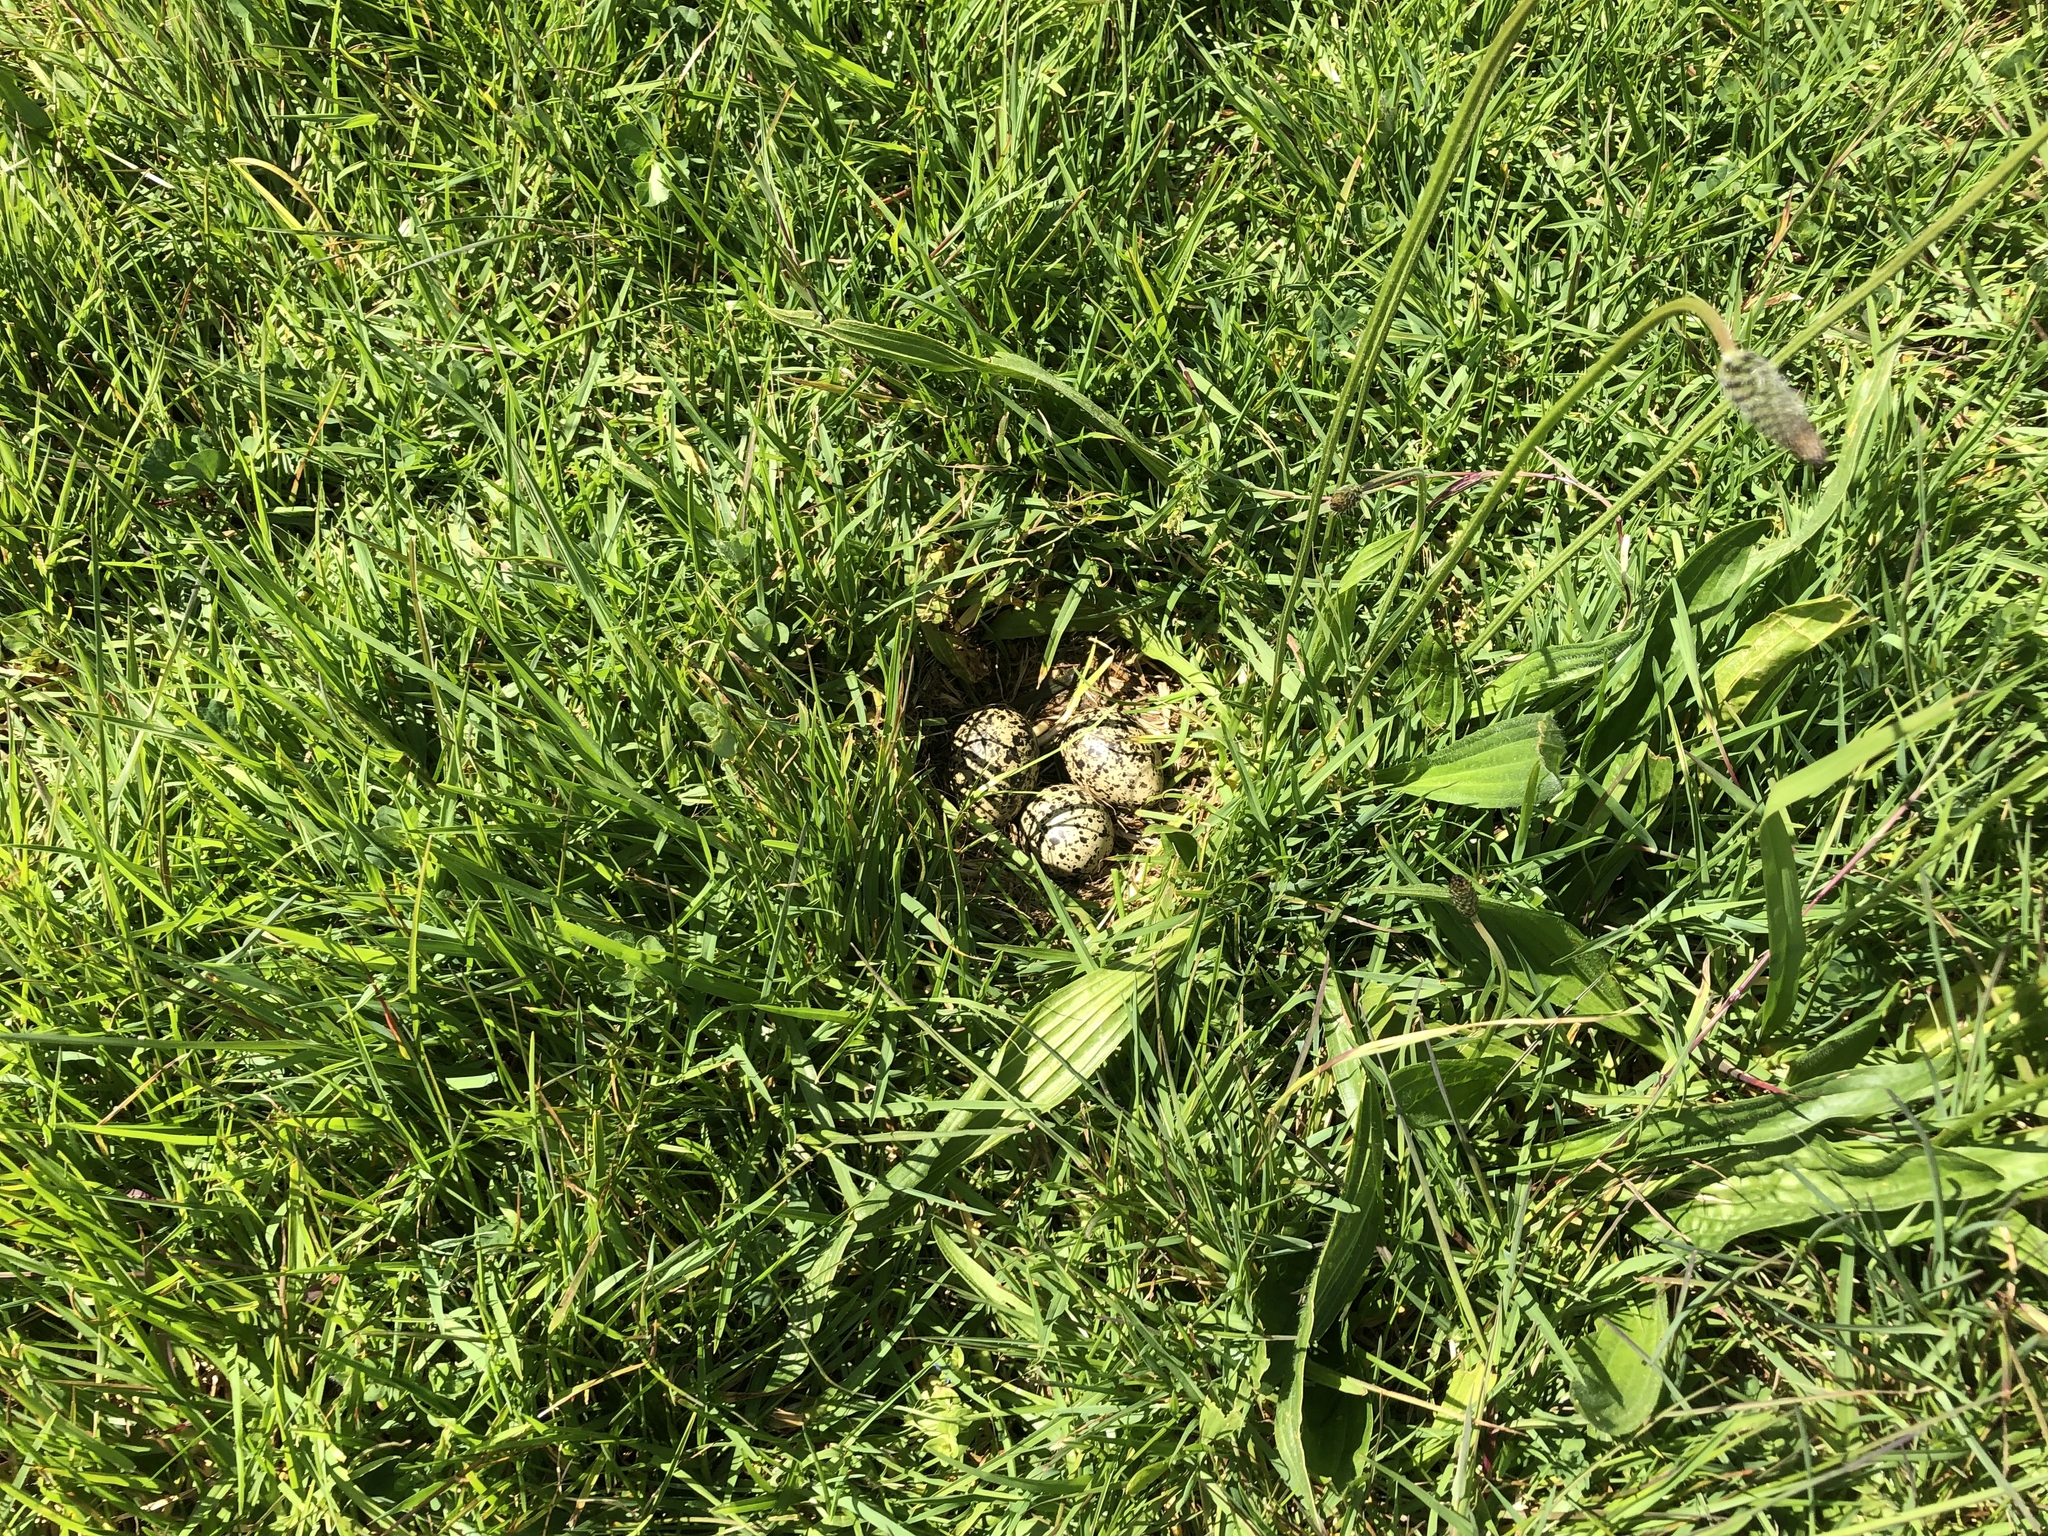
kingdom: Animalia
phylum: Chordata
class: Aves
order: Charadriiformes
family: Charadriidae
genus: Anarhynchus
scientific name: Anarhynchus
